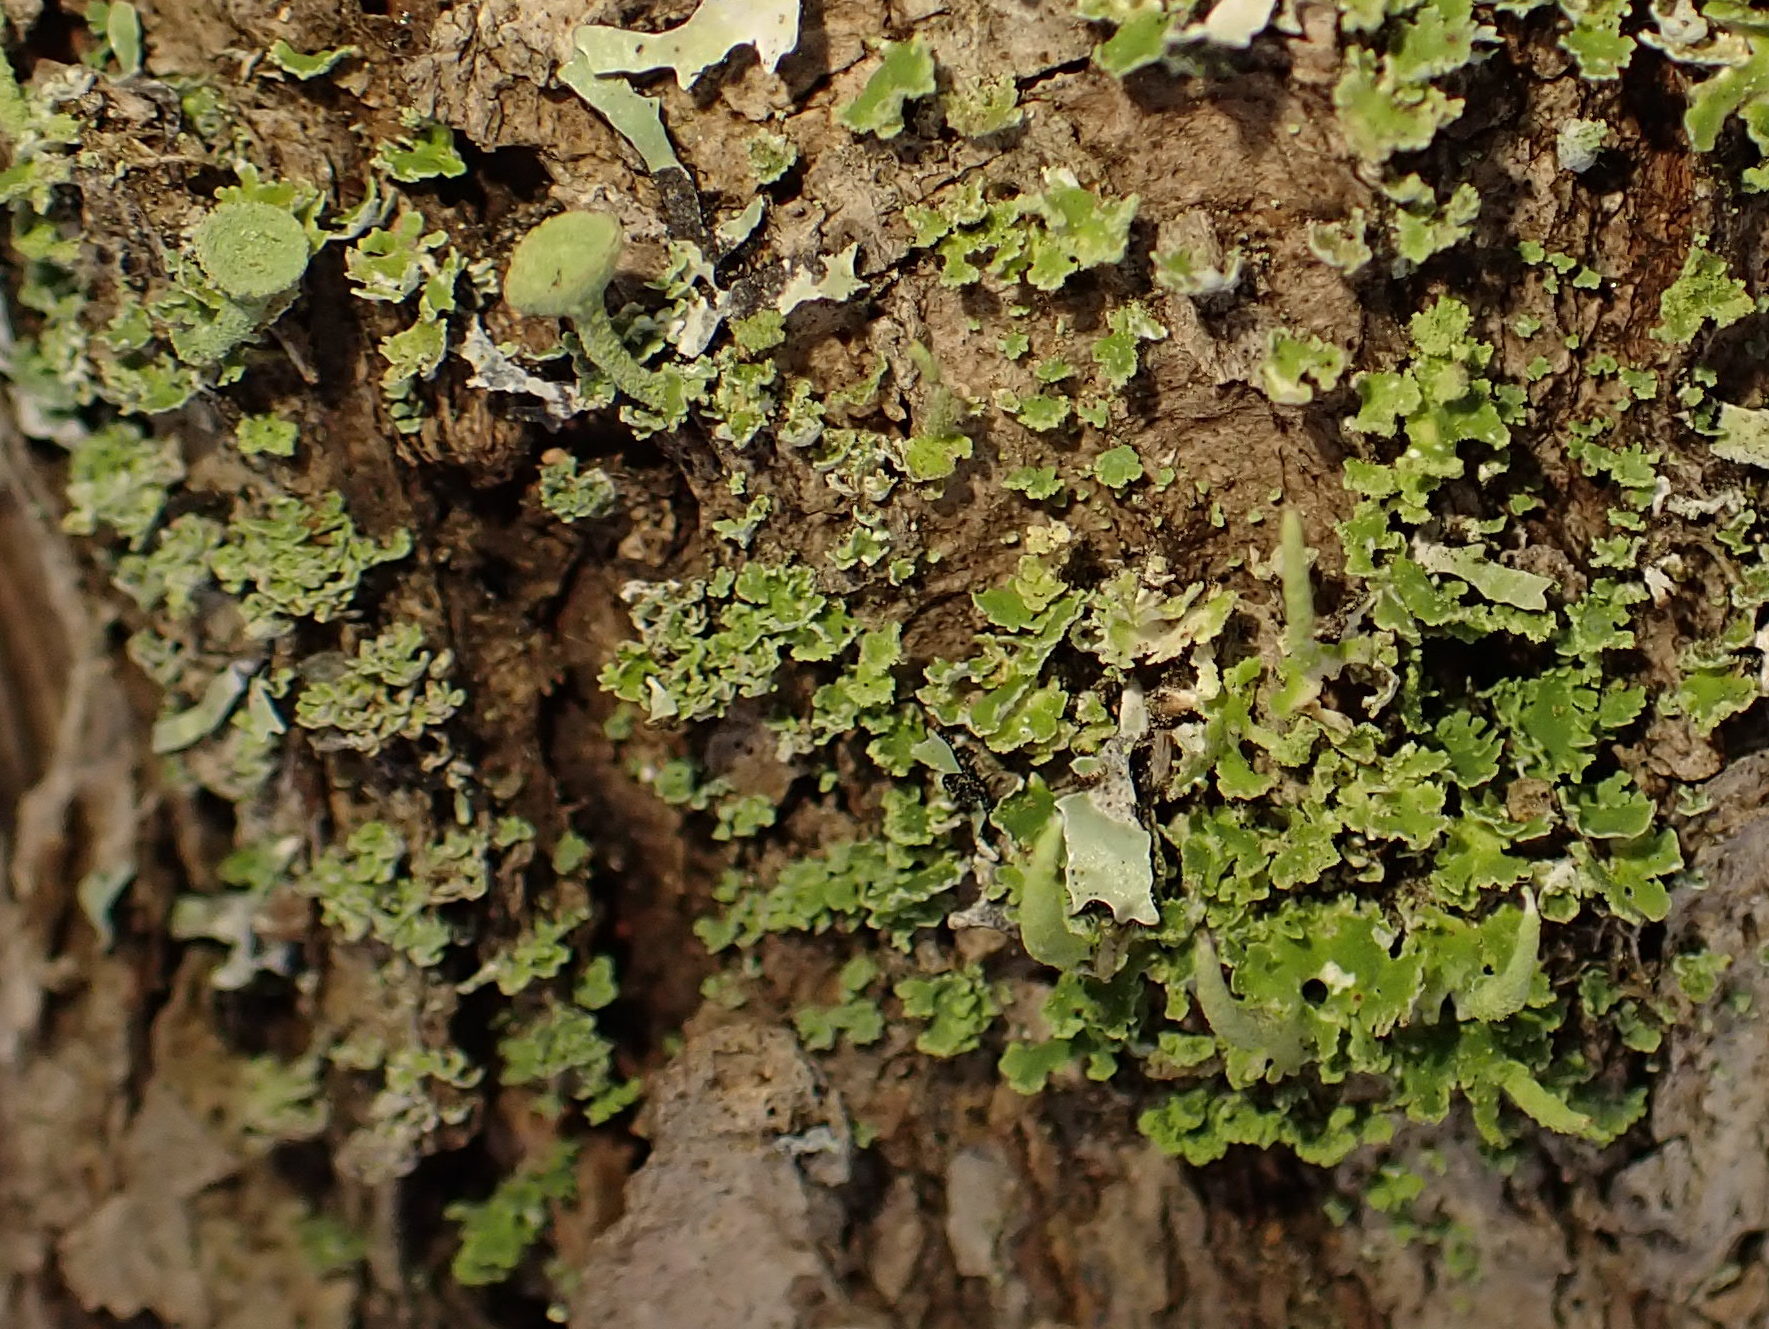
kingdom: Fungi
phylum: Ascomycota
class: Lecanoromycetes
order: Lecanorales
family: Cladoniaceae
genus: Cladonia
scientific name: Cladonia coniocraea
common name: Common powderhorn
